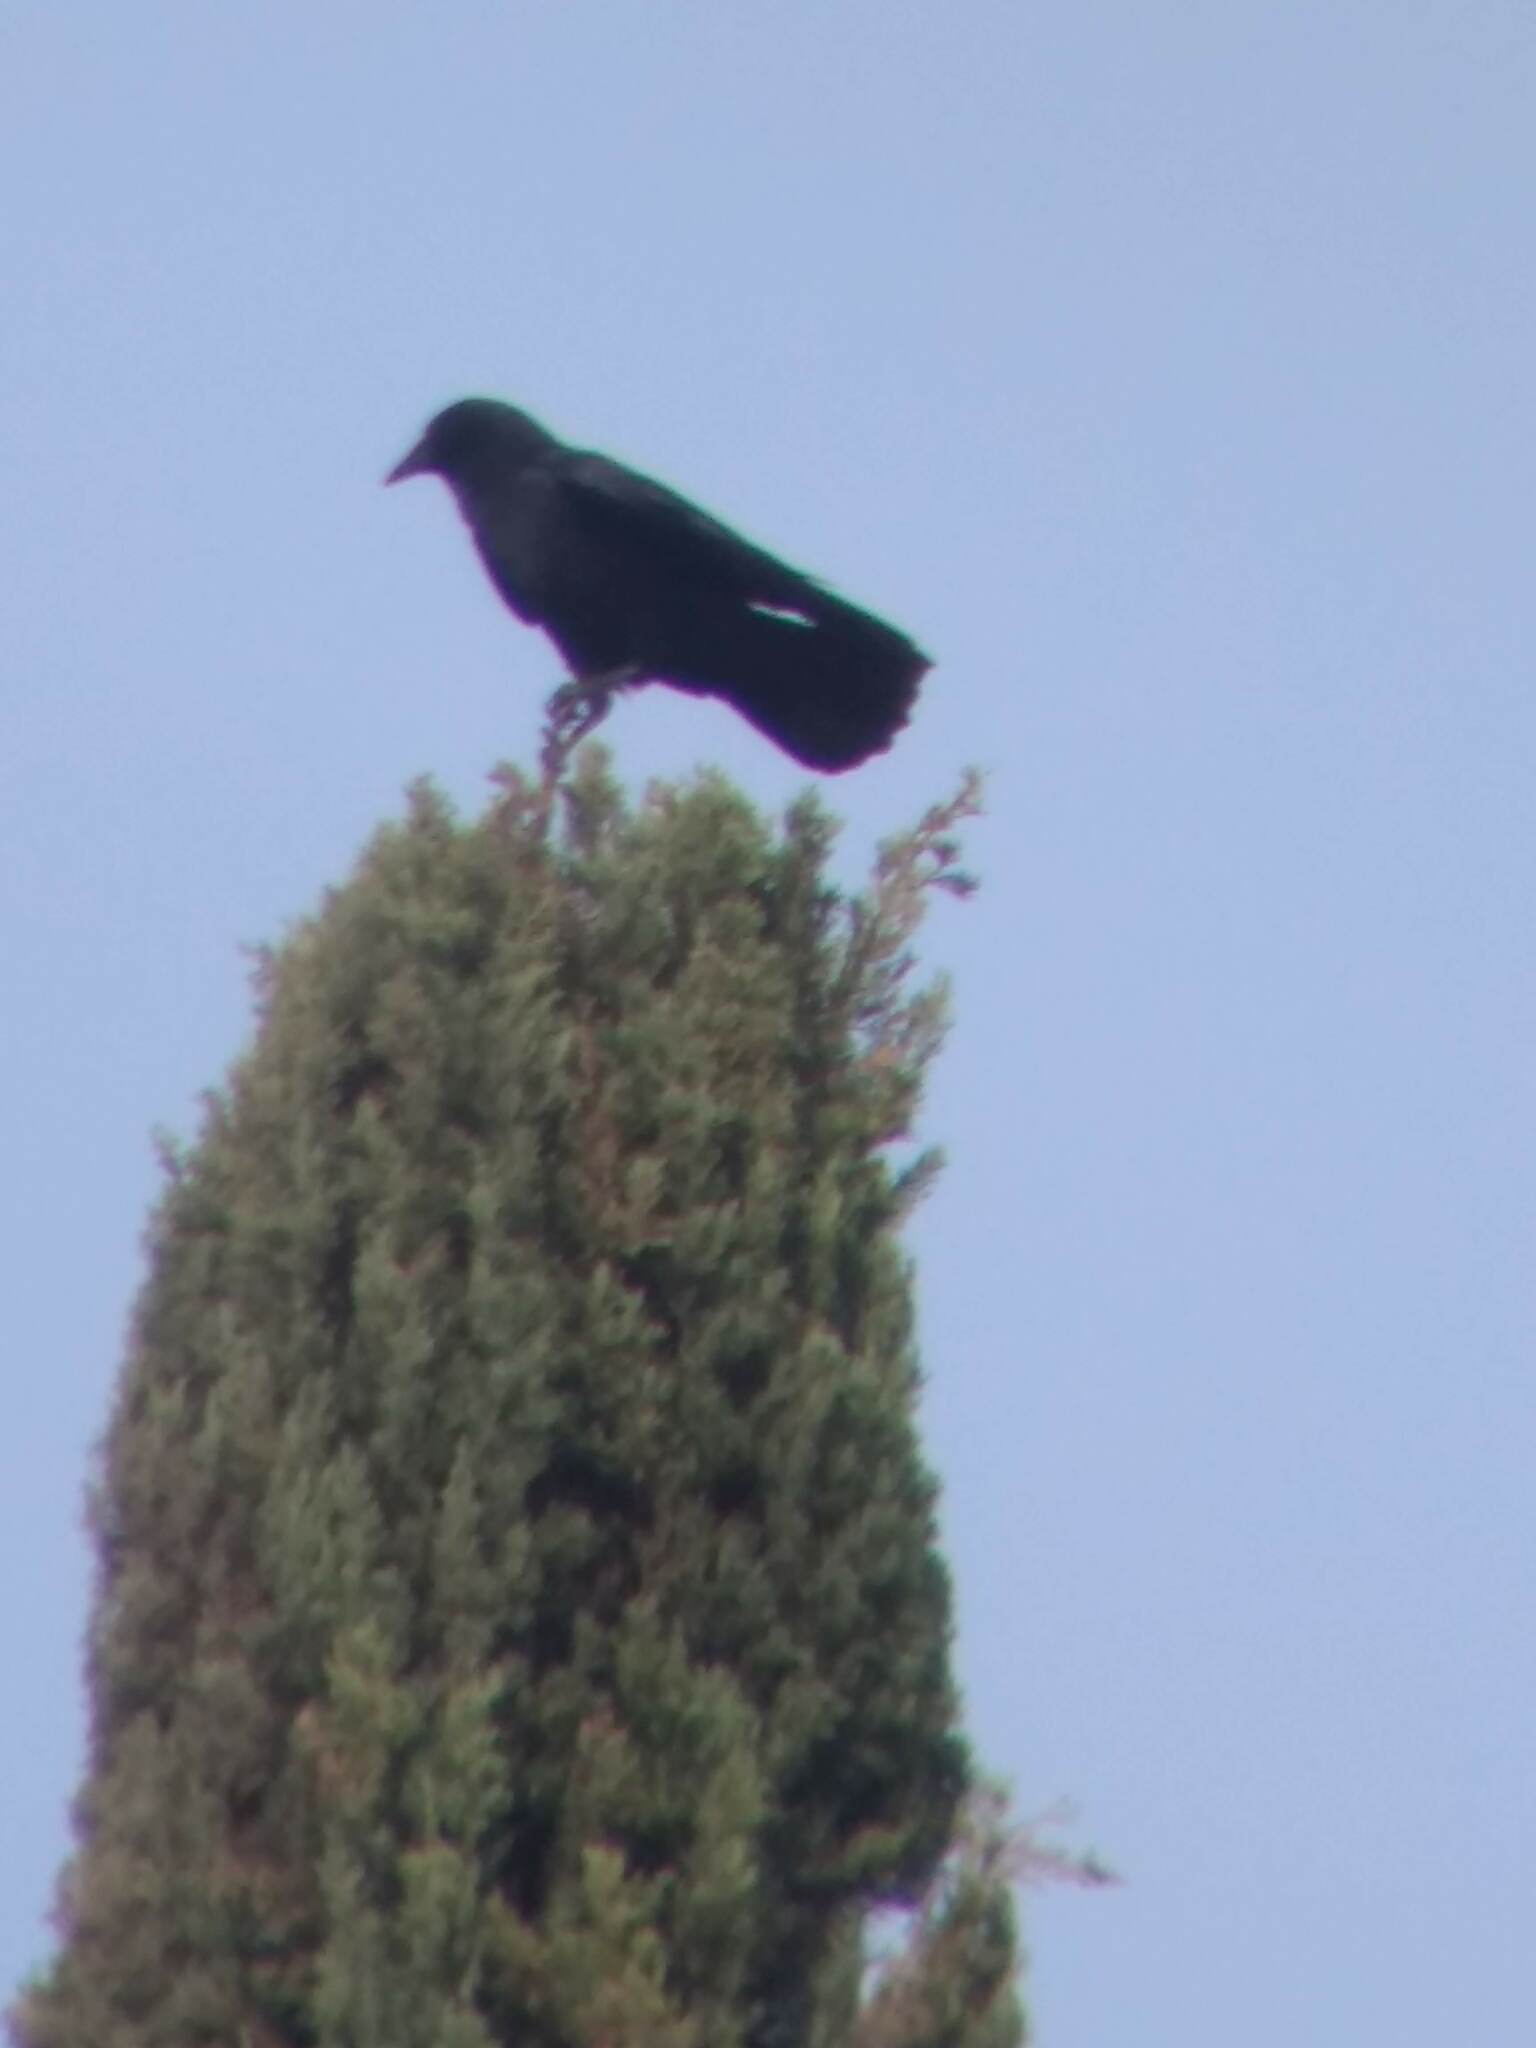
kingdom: Animalia
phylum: Chordata
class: Aves
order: Passeriformes
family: Corvidae
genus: Corvus
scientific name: Corvus brachyrhynchos
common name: American crow
